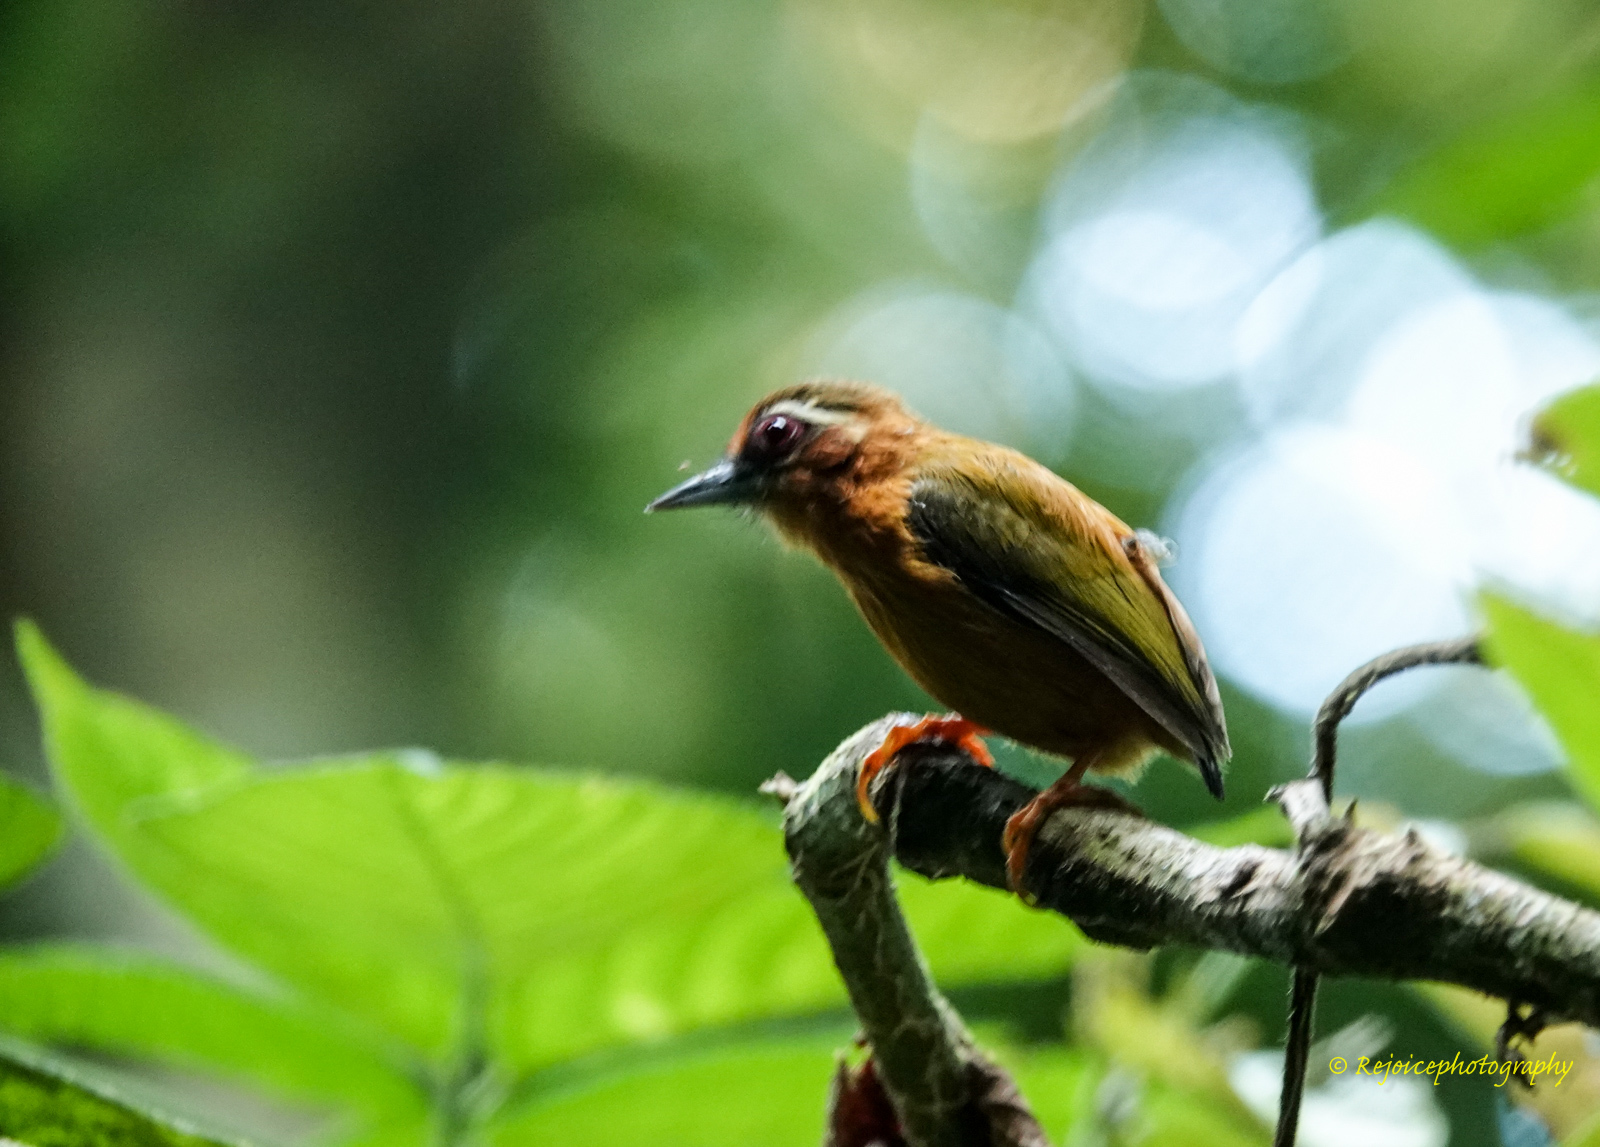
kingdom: Animalia
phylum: Chordata
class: Aves
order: Piciformes
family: Picidae
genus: Sasia
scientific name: Sasia ochracea
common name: White-browed piculet
